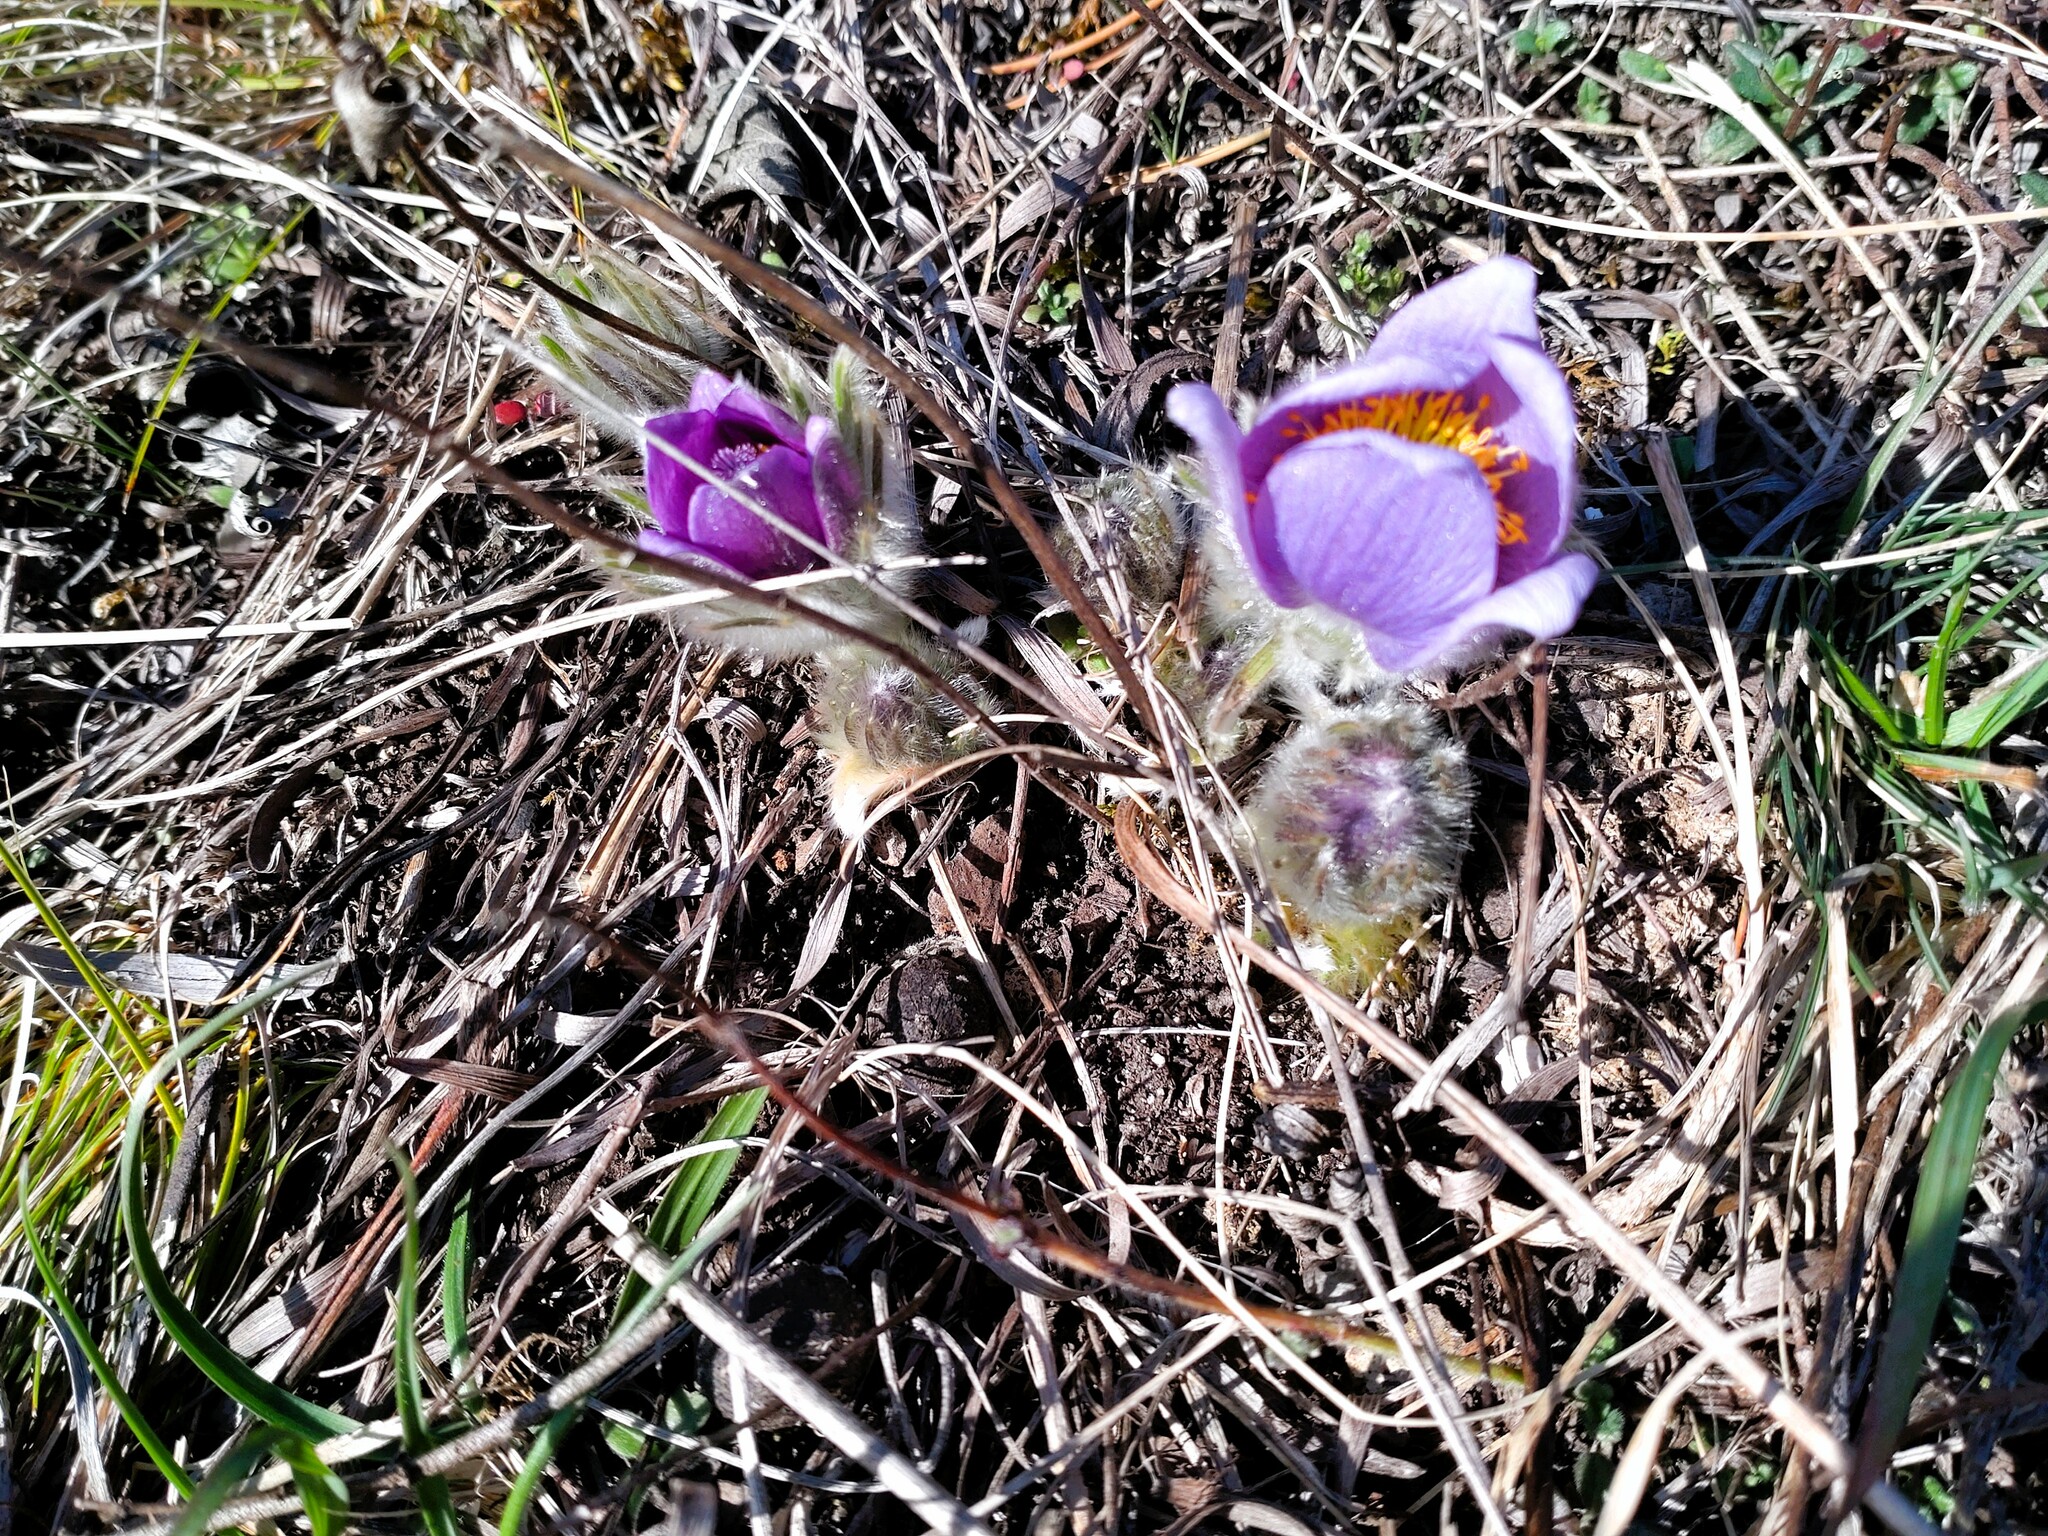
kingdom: Plantae
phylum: Tracheophyta
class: Magnoliopsida
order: Ranunculales
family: Ranunculaceae
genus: Pulsatilla
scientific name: Pulsatilla grandis
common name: Greater pasque flower
